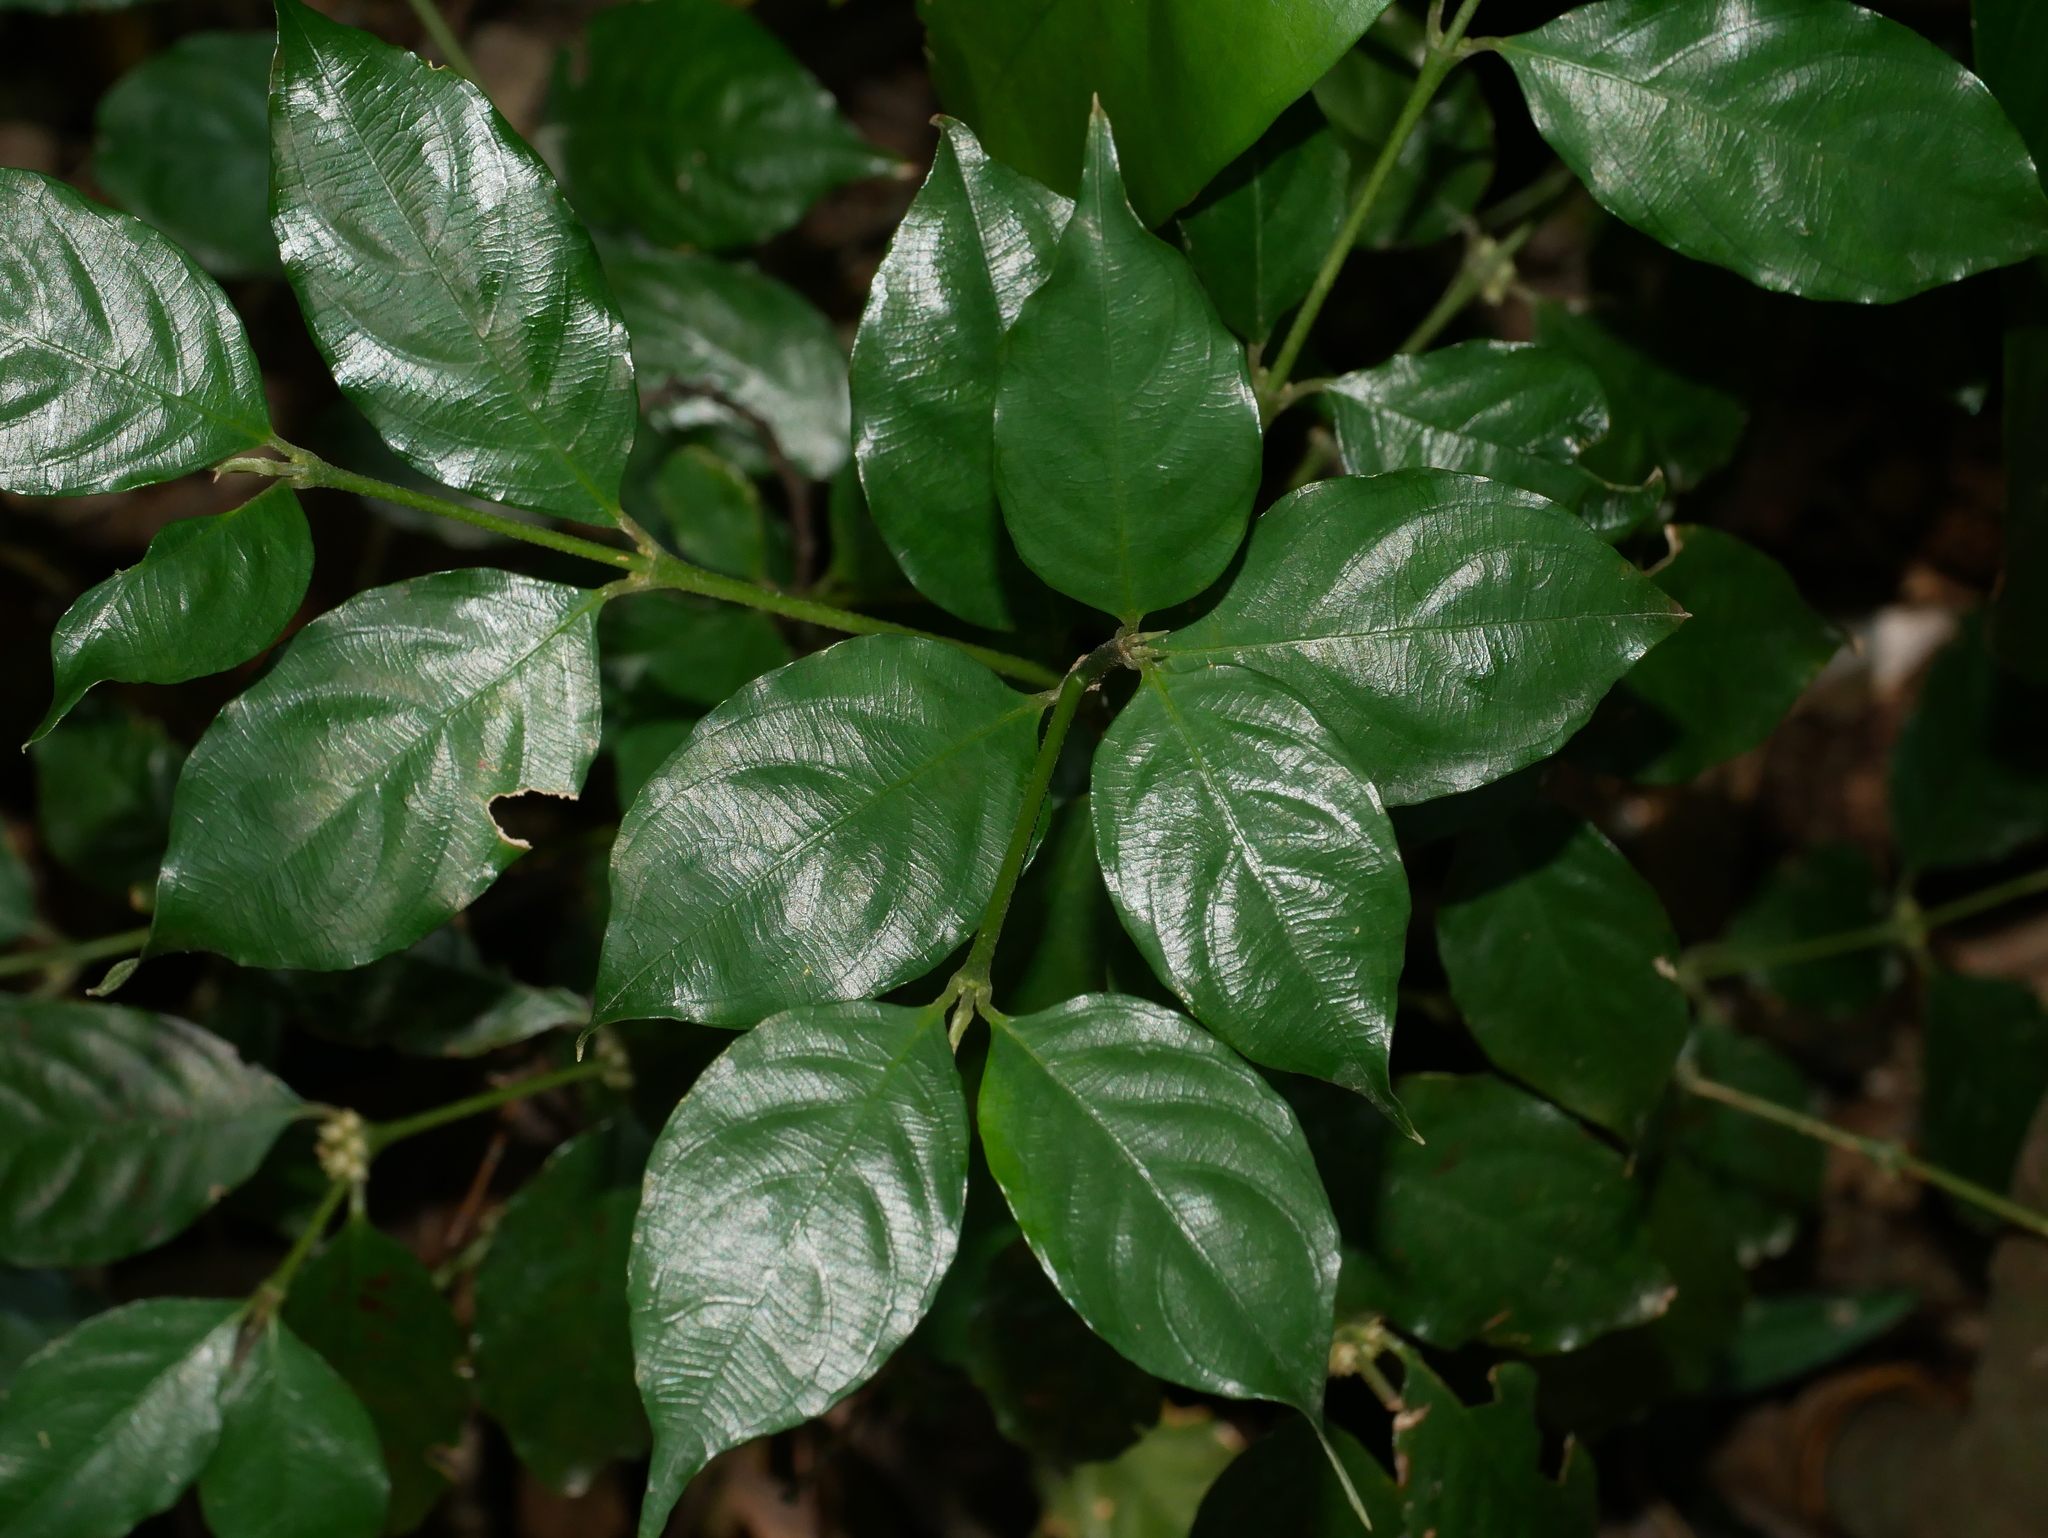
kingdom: Plantae
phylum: Tracheophyta
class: Magnoliopsida
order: Gentianales
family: Rubiaceae
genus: Lasianthus
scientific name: Lasianthus fordii
